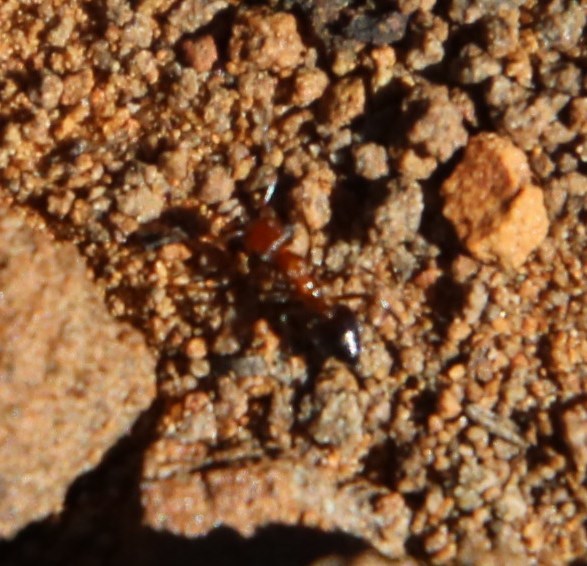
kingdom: Animalia
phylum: Arthropoda
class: Insecta
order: Hymenoptera
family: Formicidae
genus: Crematogaster
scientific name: Crematogaster melanogaster
